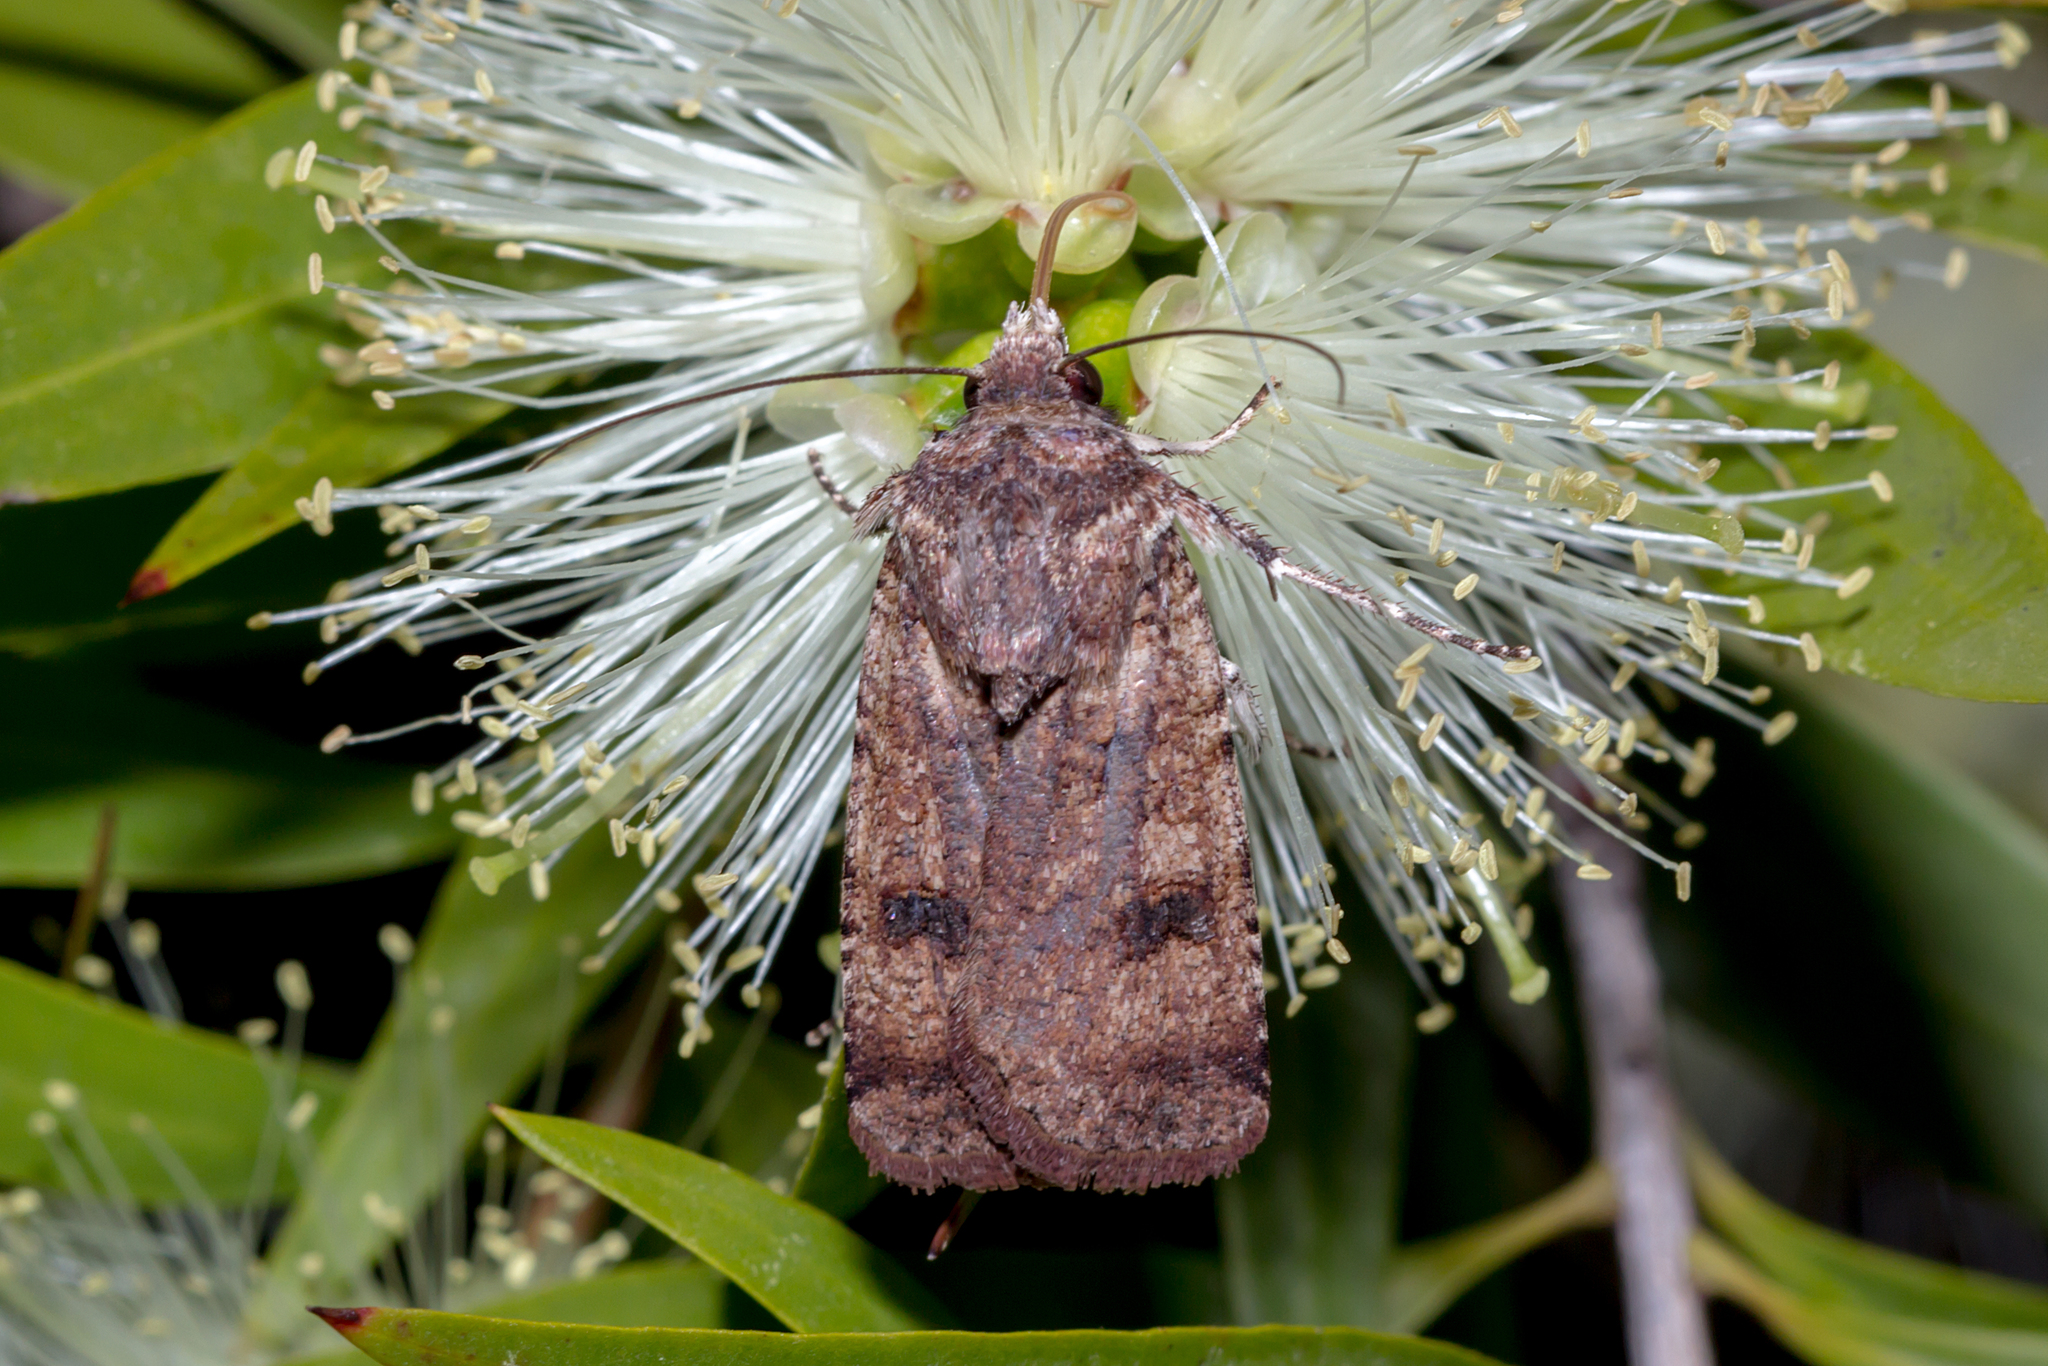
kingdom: Animalia
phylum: Arthropoda
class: Insecta
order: Lepidoptera
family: Noctuidae
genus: Agrotis
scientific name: Agrotis porphyricollis
